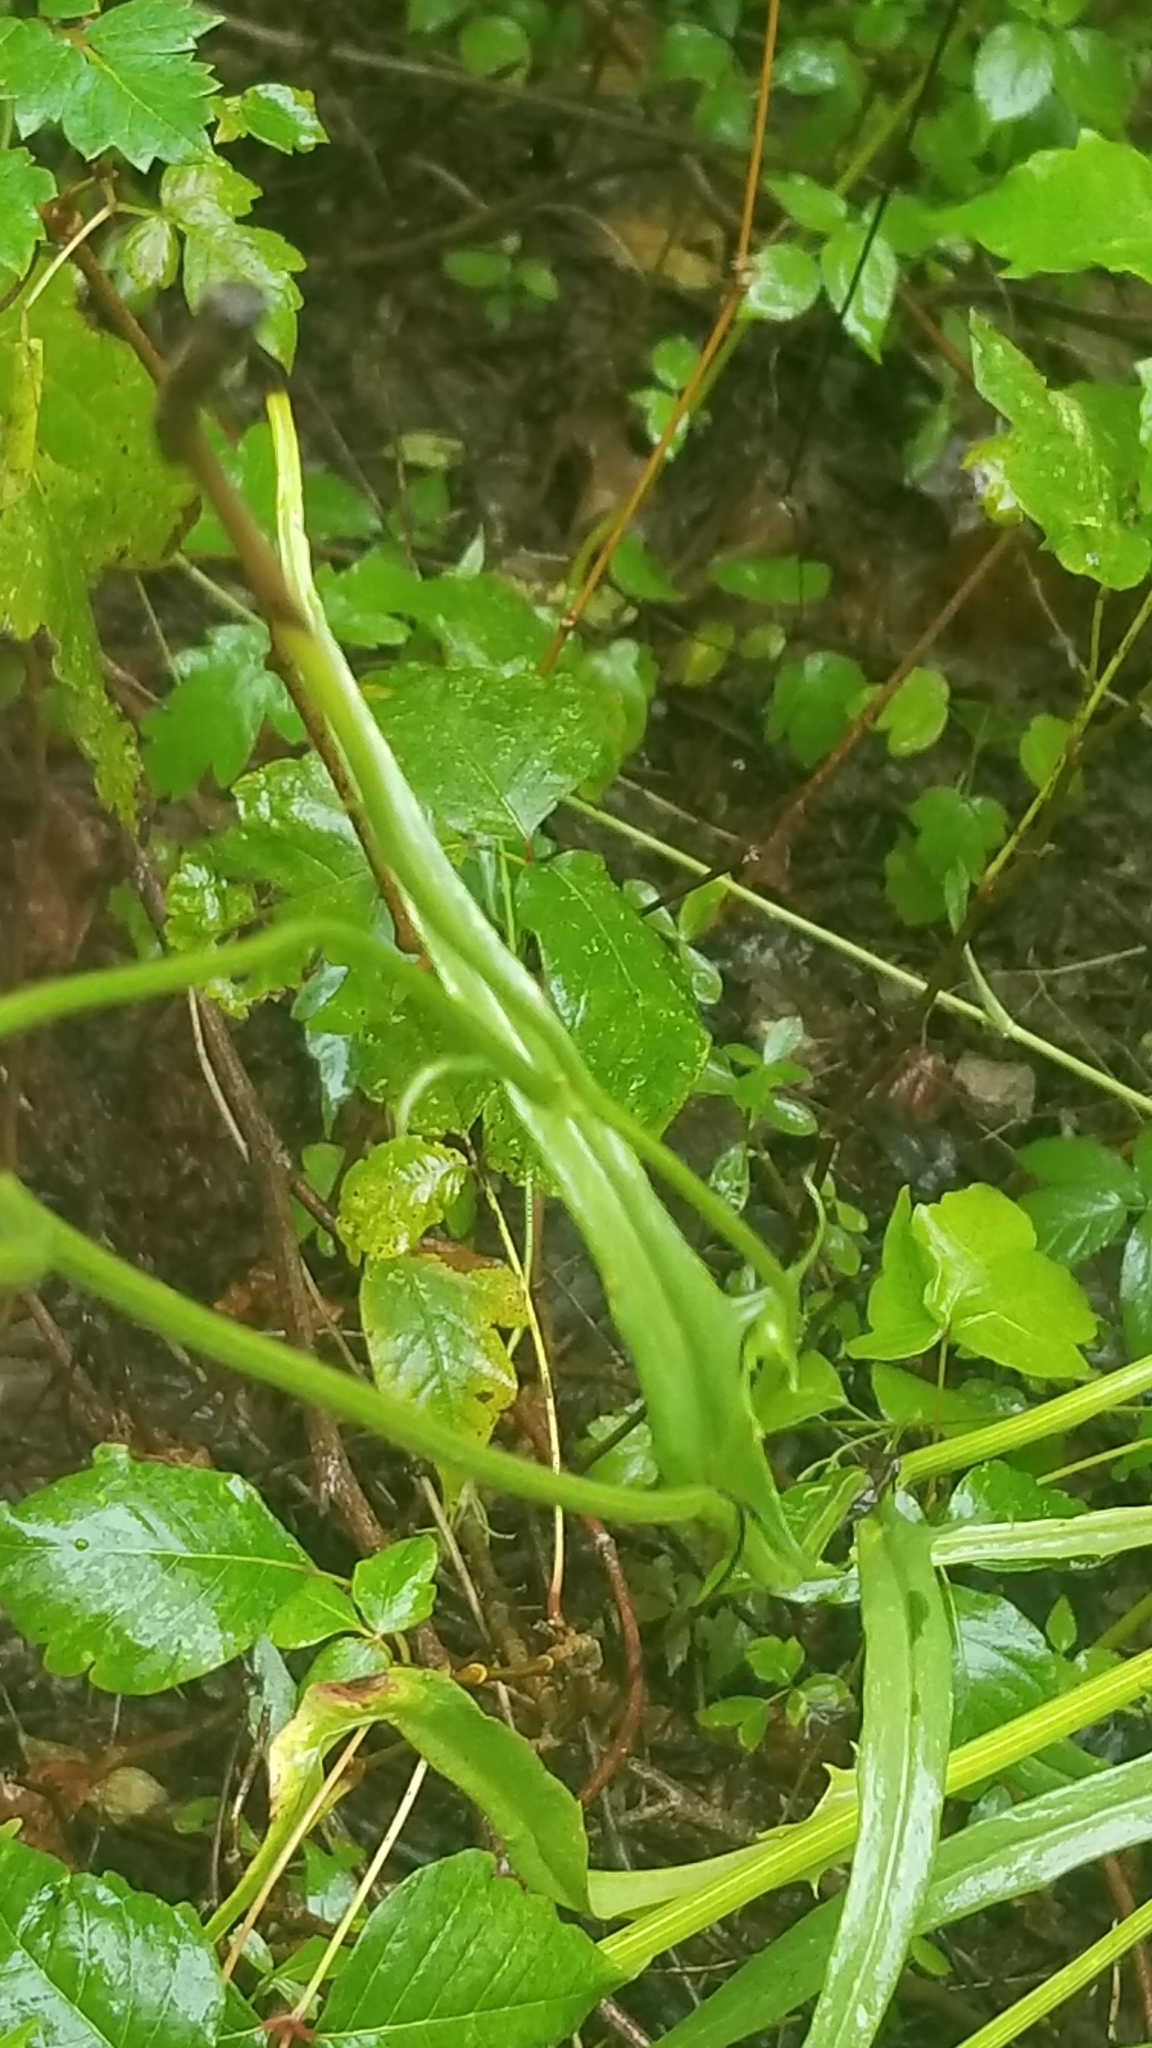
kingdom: Plantae
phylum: Tracheophyta
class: Magnoliopsida
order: Asterales
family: Asteraceae
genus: Pyrrhopappus
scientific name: Pyrrhopappus carolinianus
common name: Carolina desert-chicory
